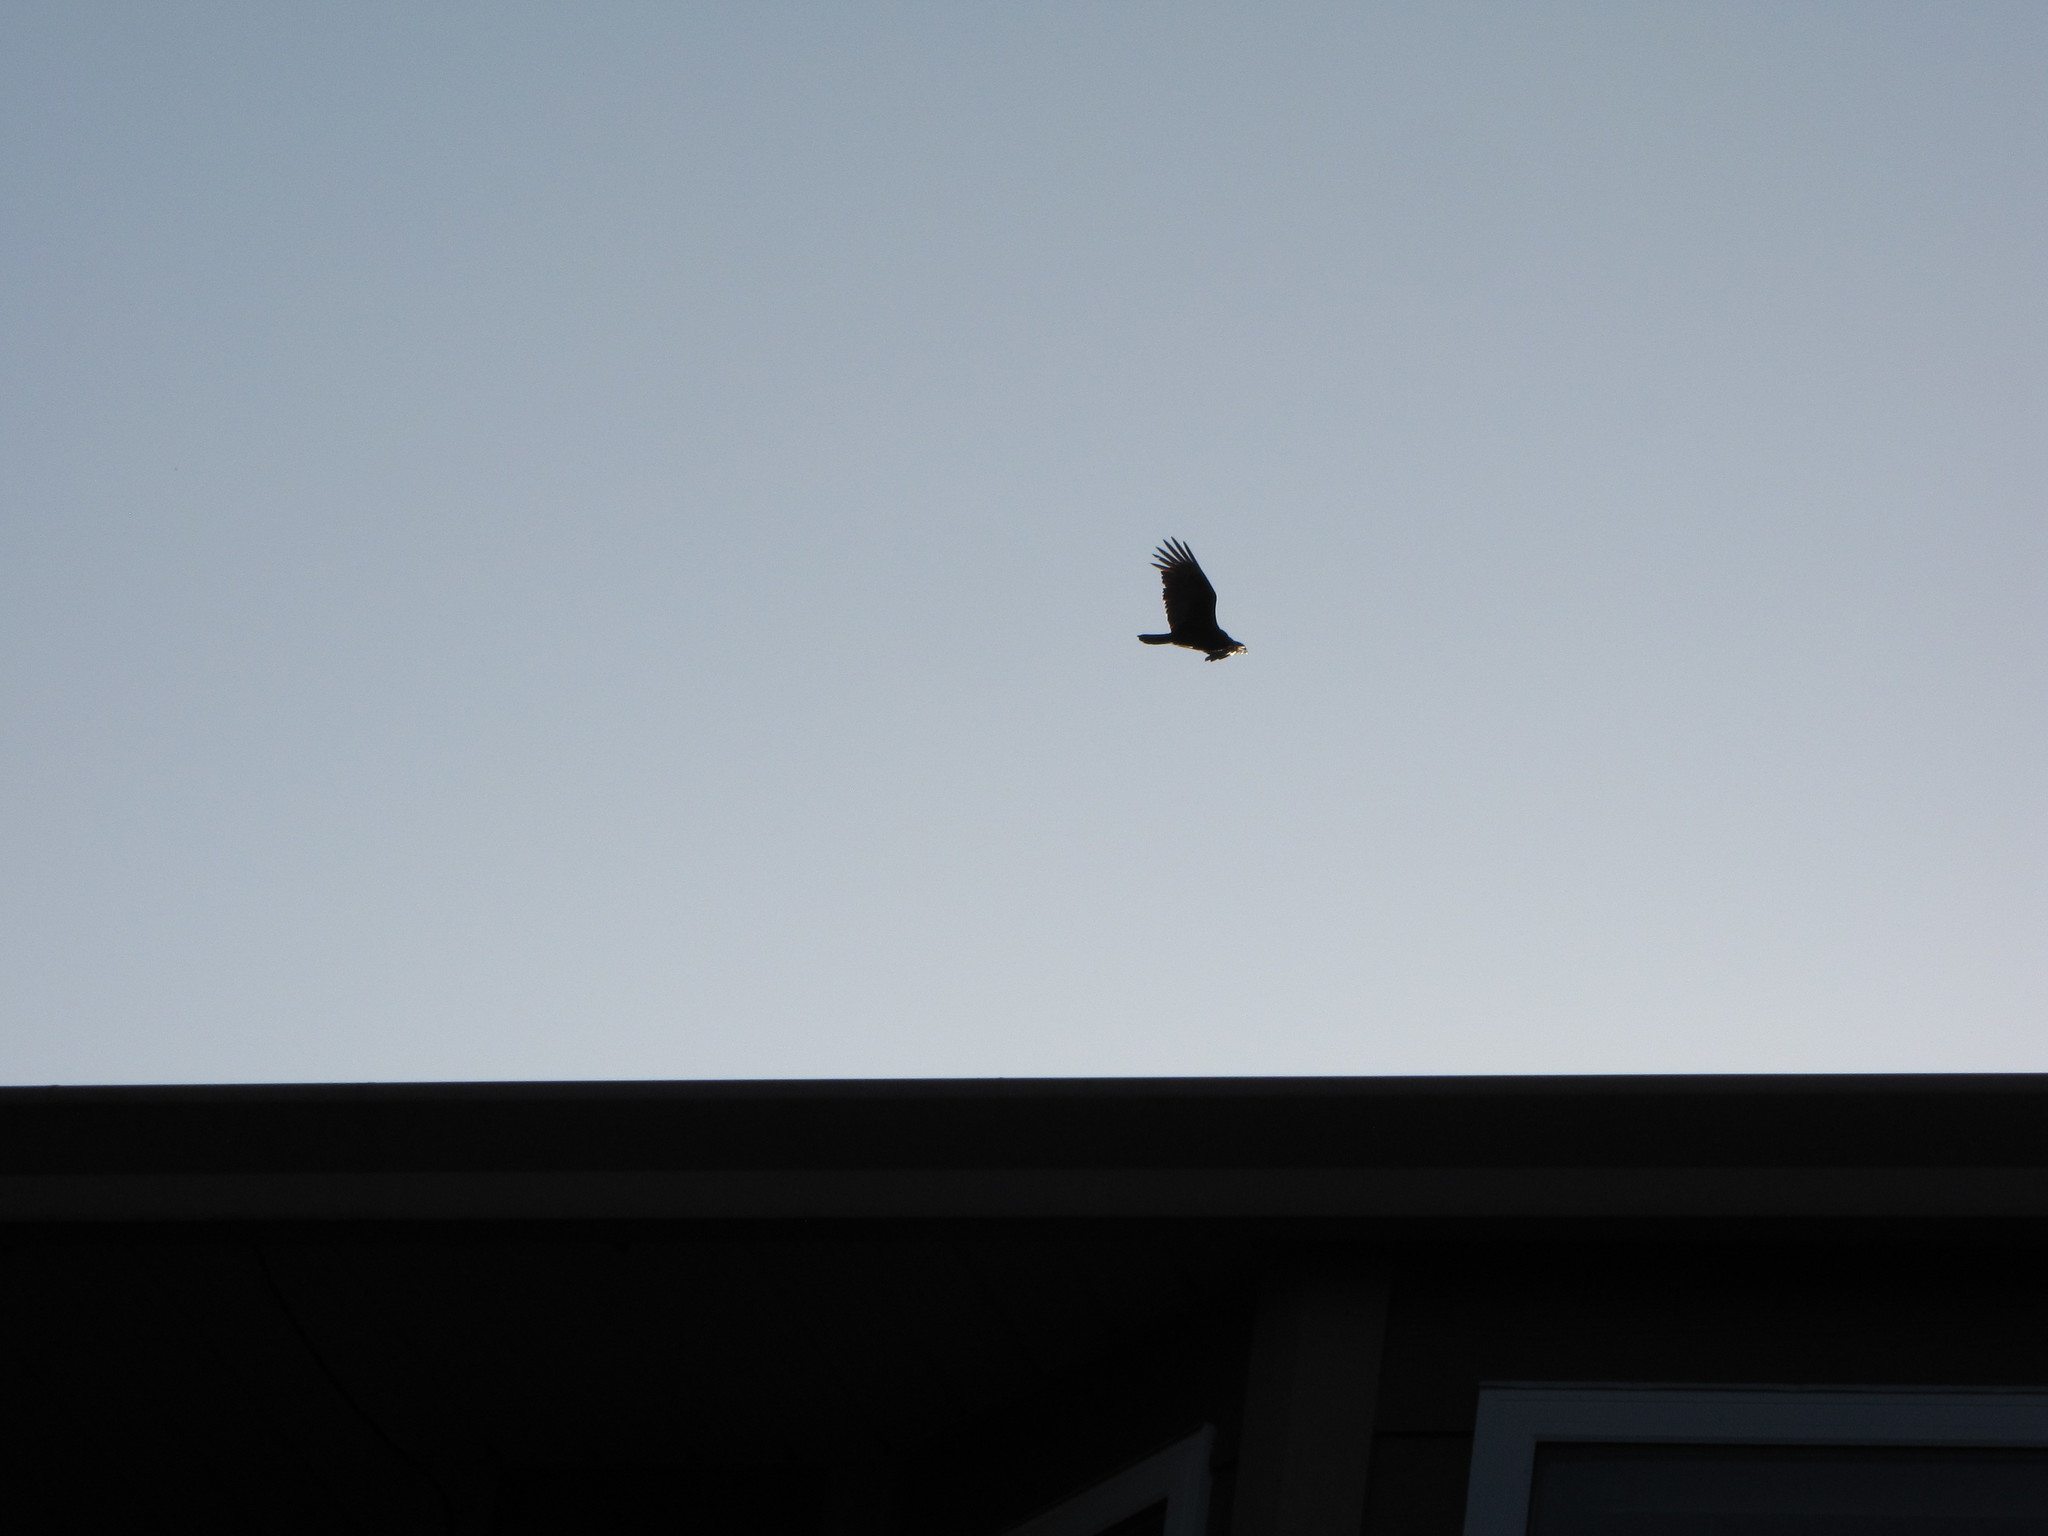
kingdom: Animalia
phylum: Chordata
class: Aves
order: Accipitriformes
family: Cathartidae
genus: Cathartes
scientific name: Cathartes aura
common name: Turkey vulture
